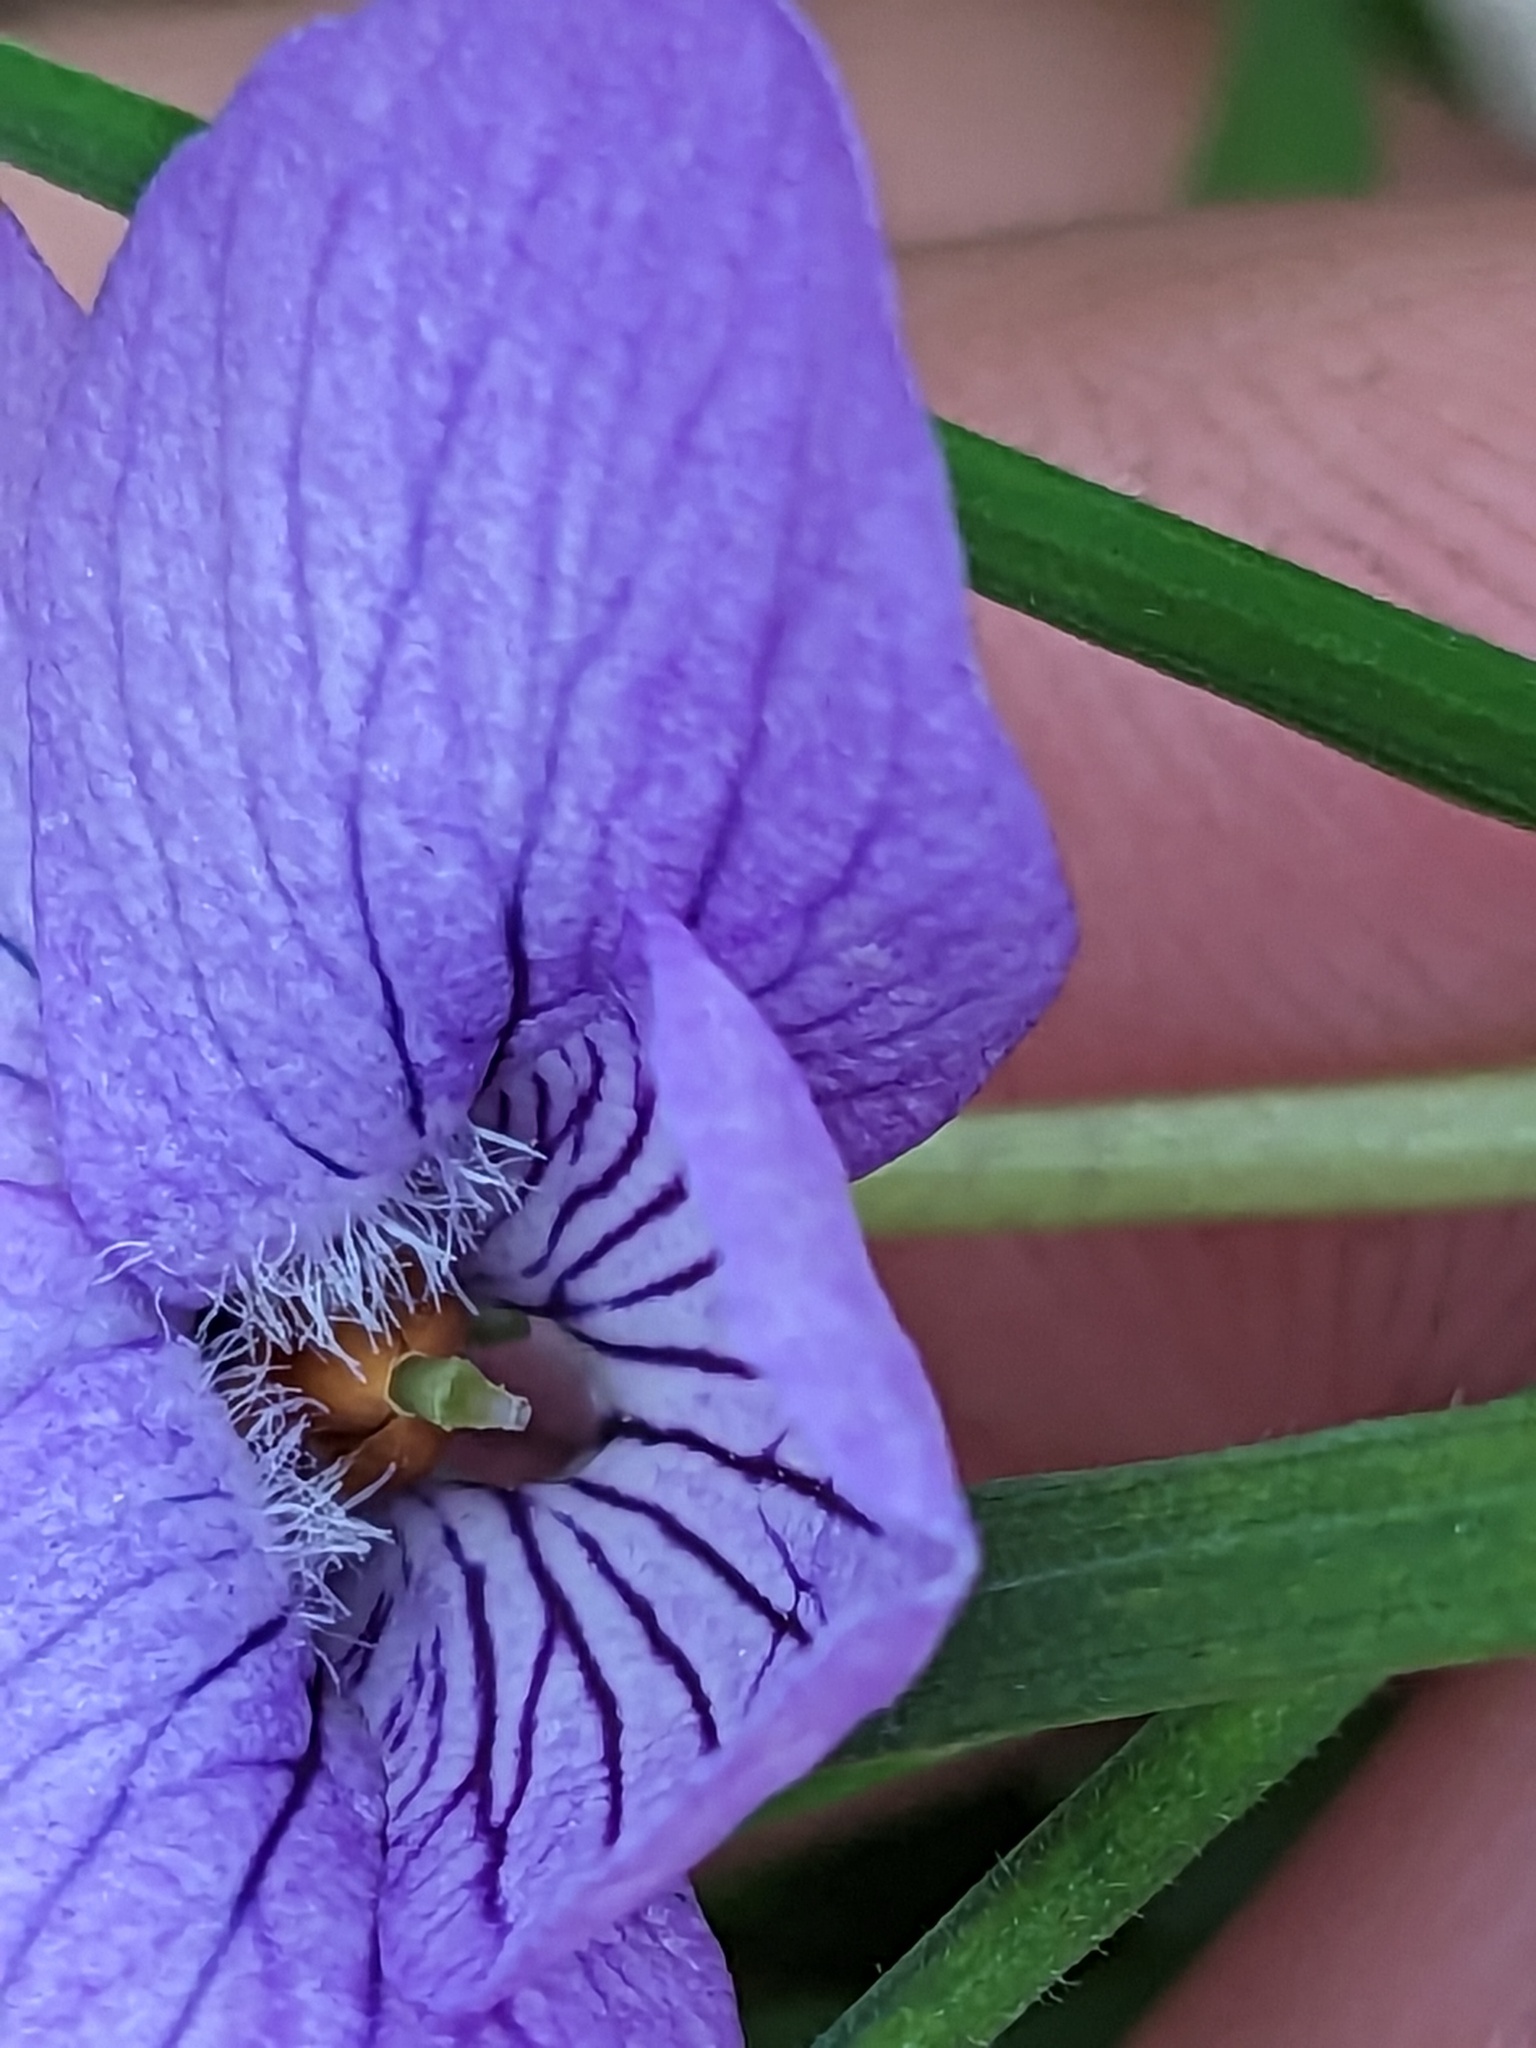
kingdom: Plantae
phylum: Tracheophyta
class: Magnoliopsida
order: Malpighiales
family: Violaceae
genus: Viola
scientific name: Viola langsdorffii
